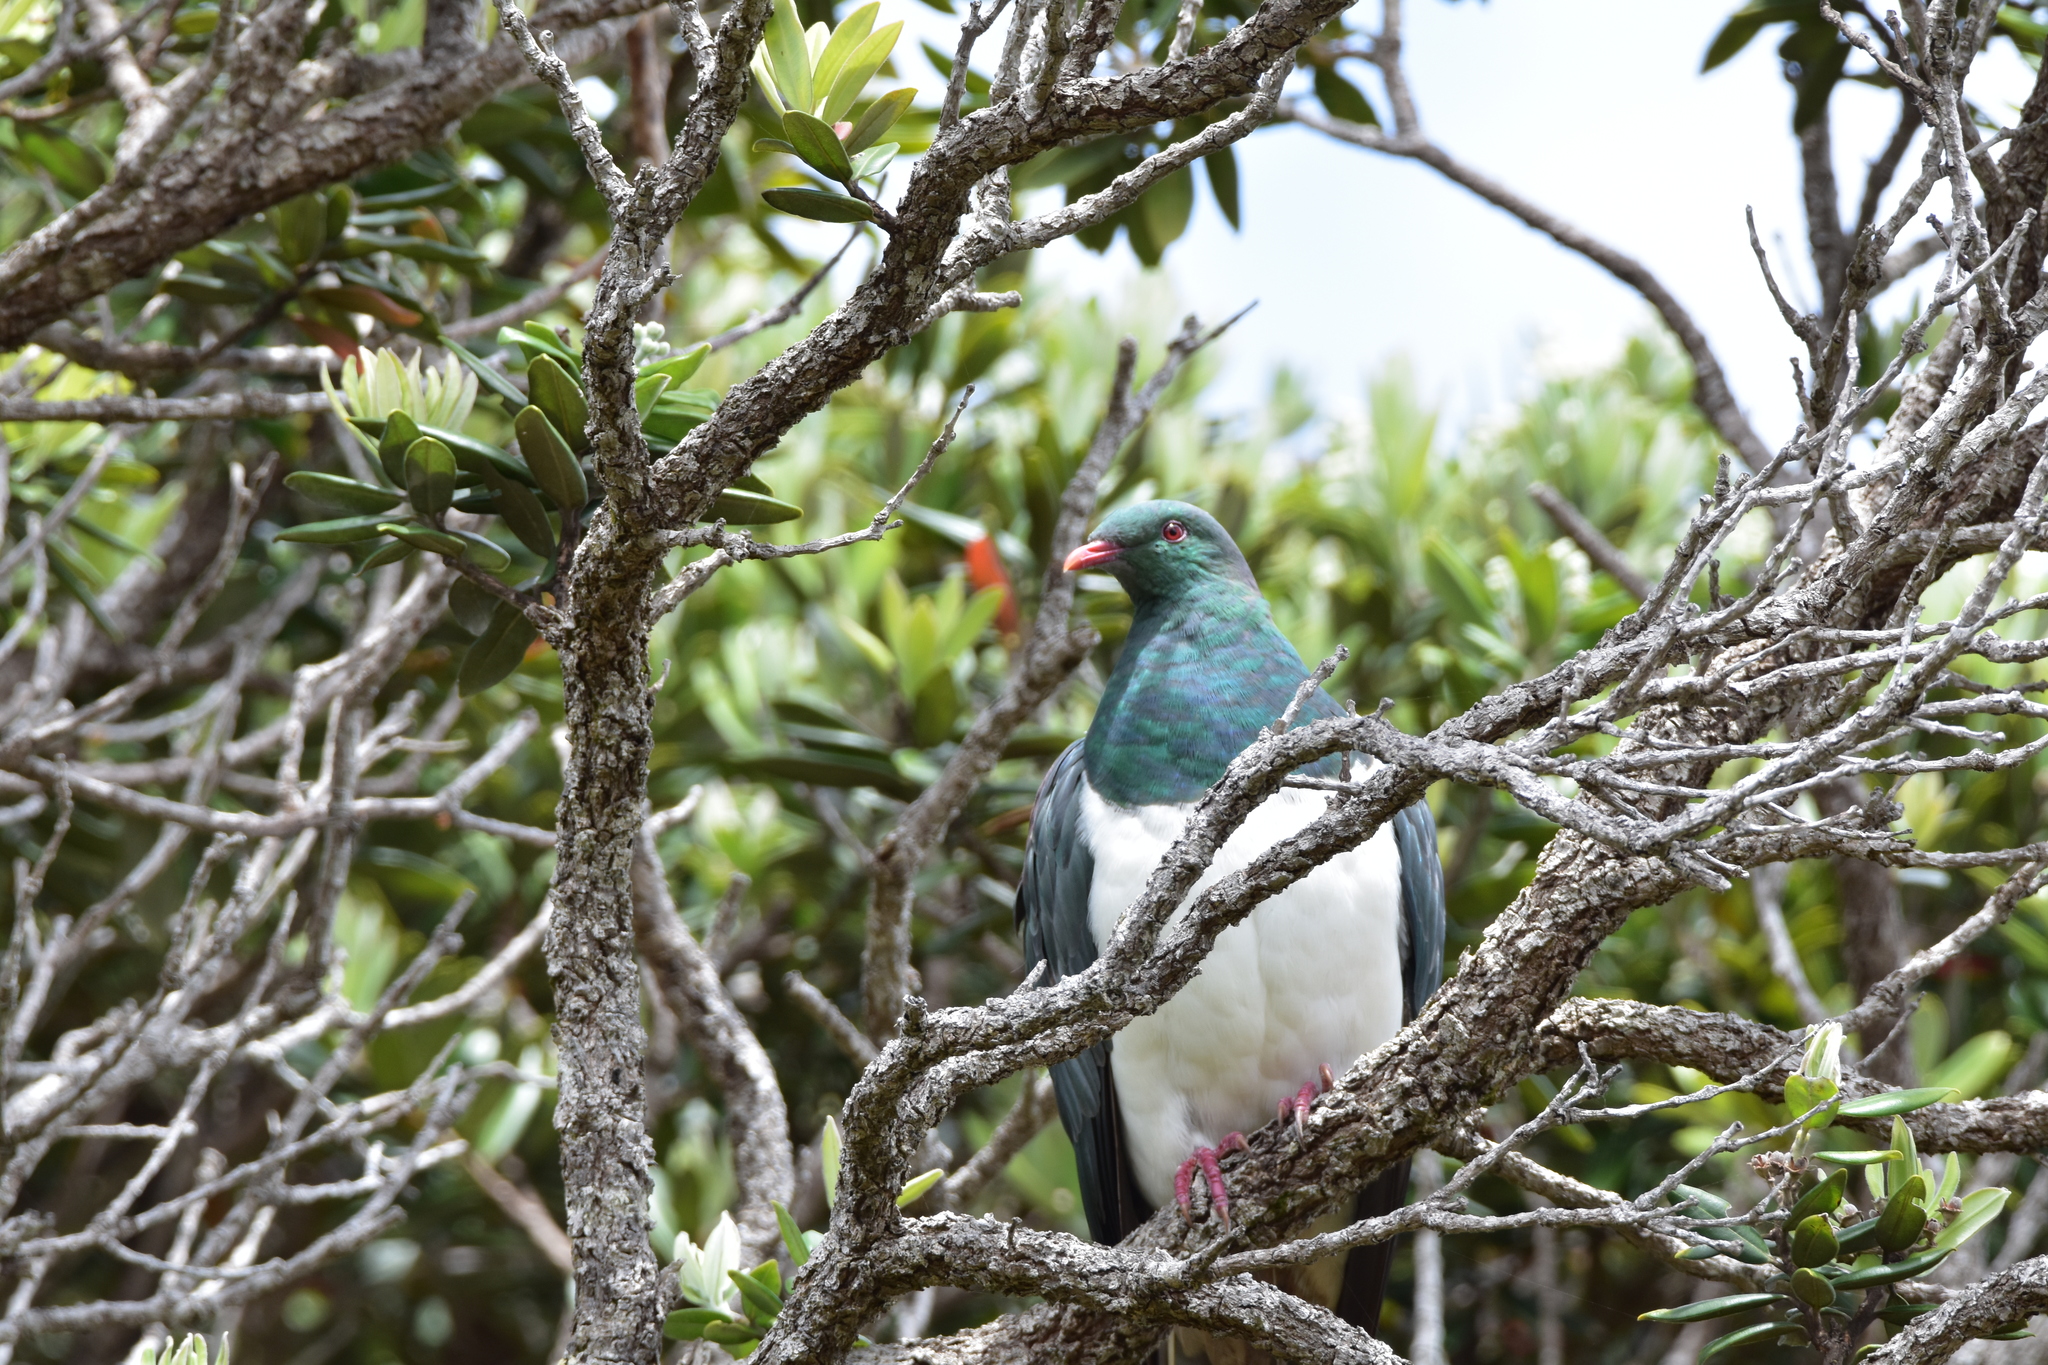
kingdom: Animalia
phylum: Chordata
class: Aves
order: Columbiformes
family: Columbidae
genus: Hemiphaga
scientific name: Hemiphaga novaeseelandiae
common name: New zealand pigeon
